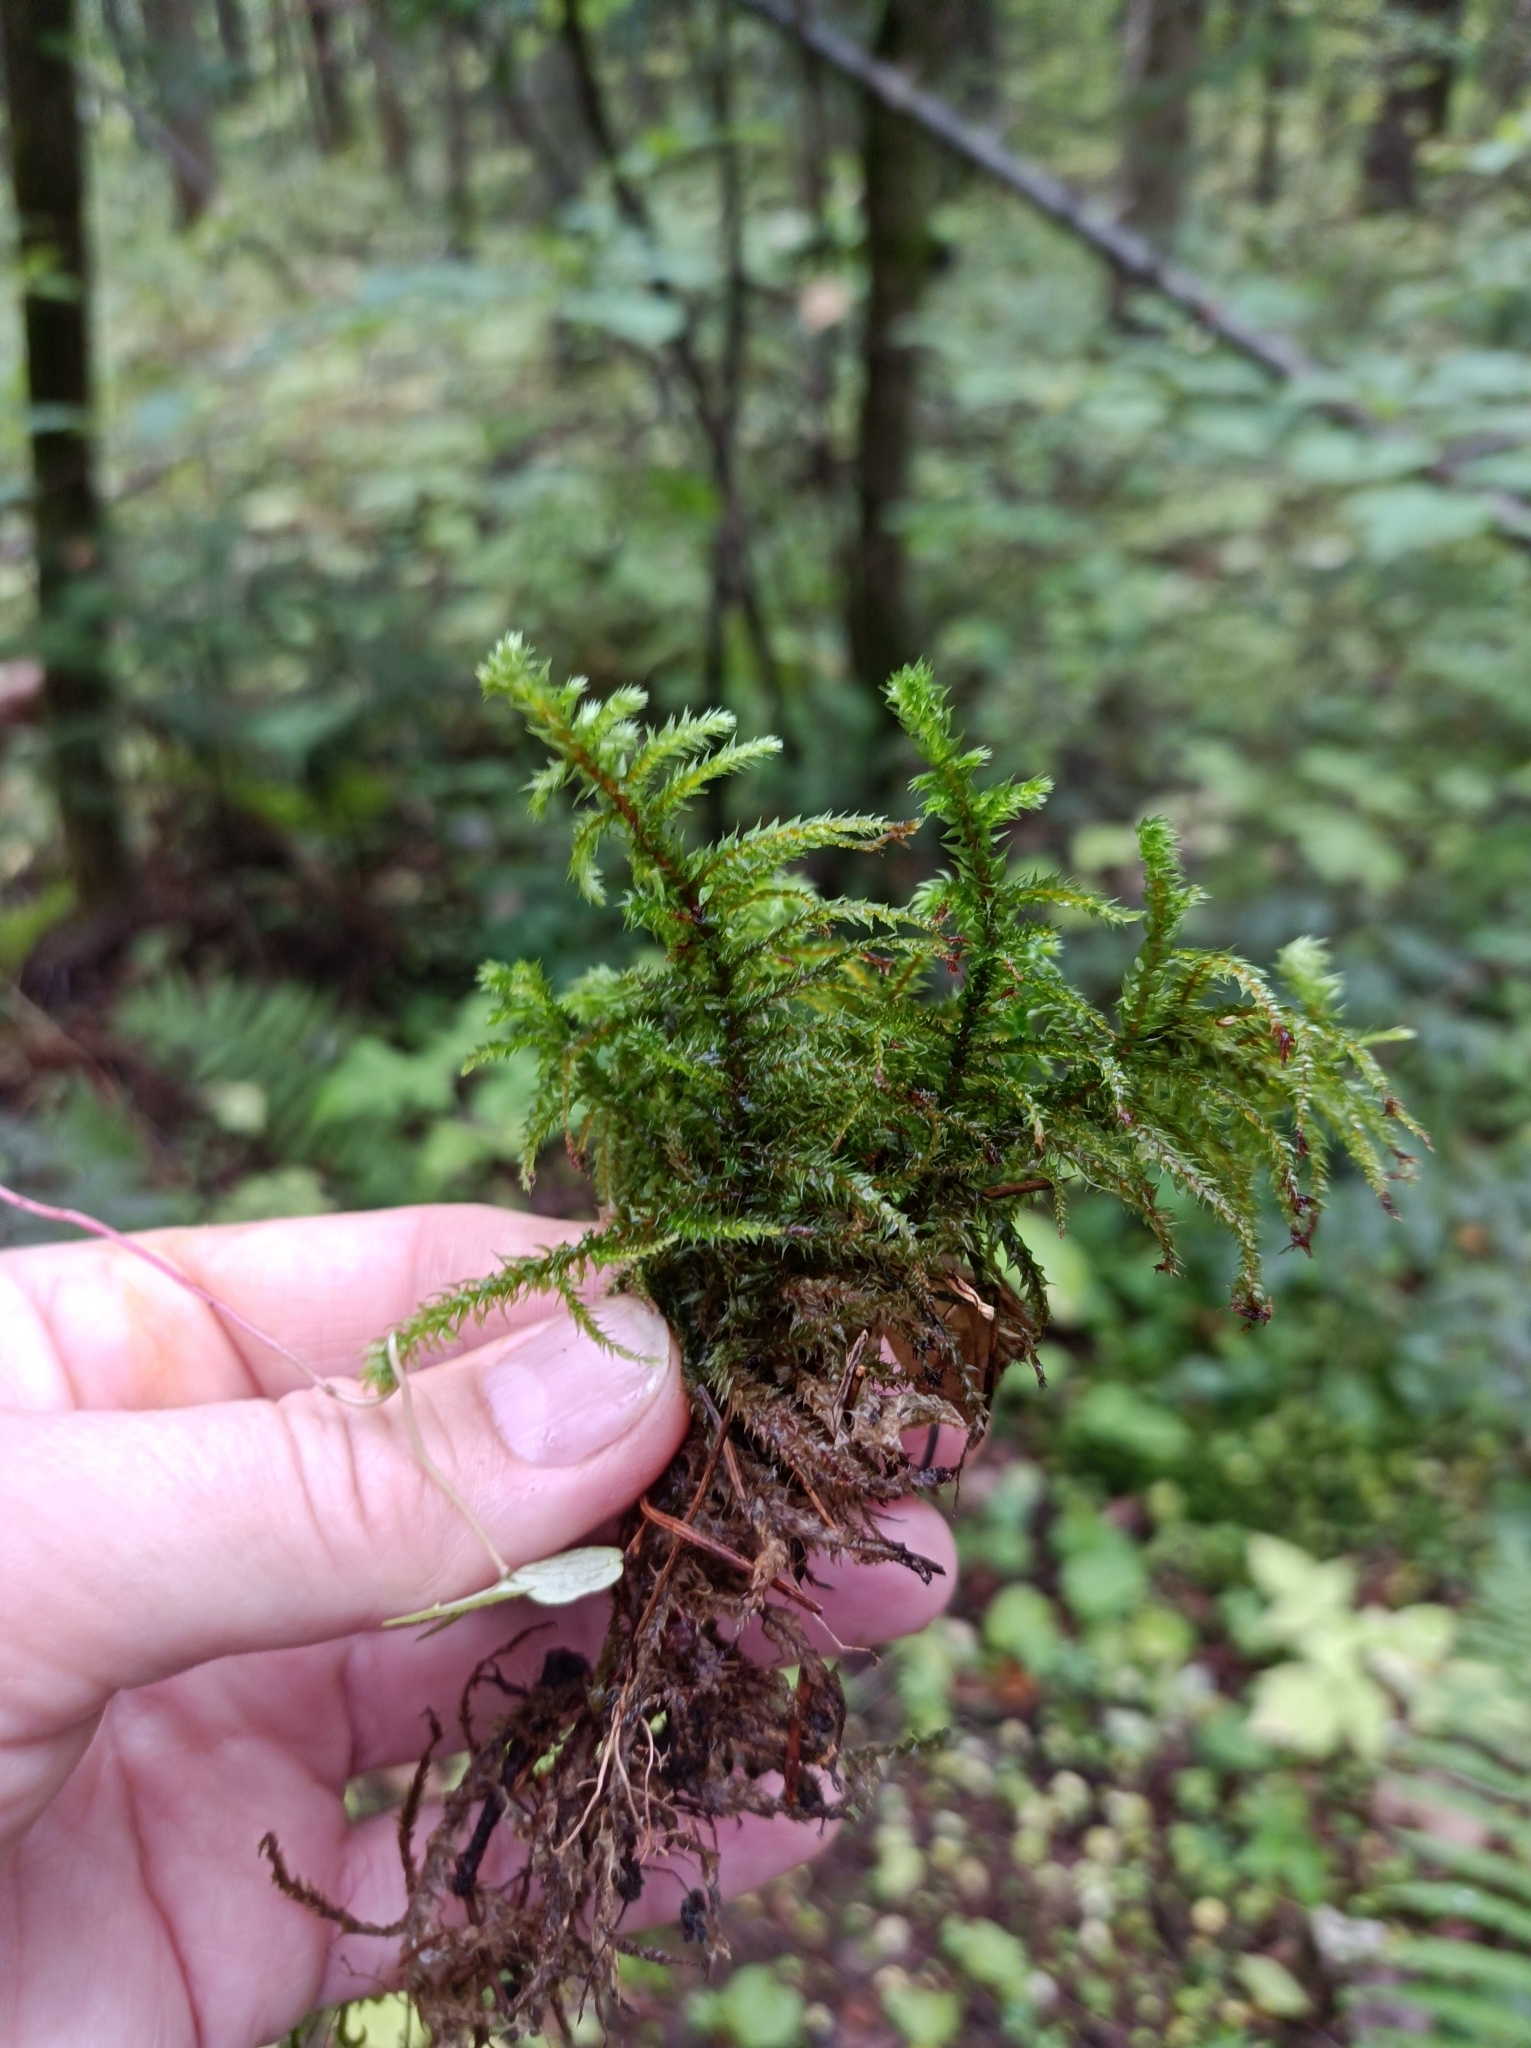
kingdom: Plantae
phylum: Bryophyta
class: Bryopsida
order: Hypnales
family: Hylocomiaceae
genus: Hylocomiadelphus
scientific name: Hylocomiadelphus triquetrus
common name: Rough goose neck moss
